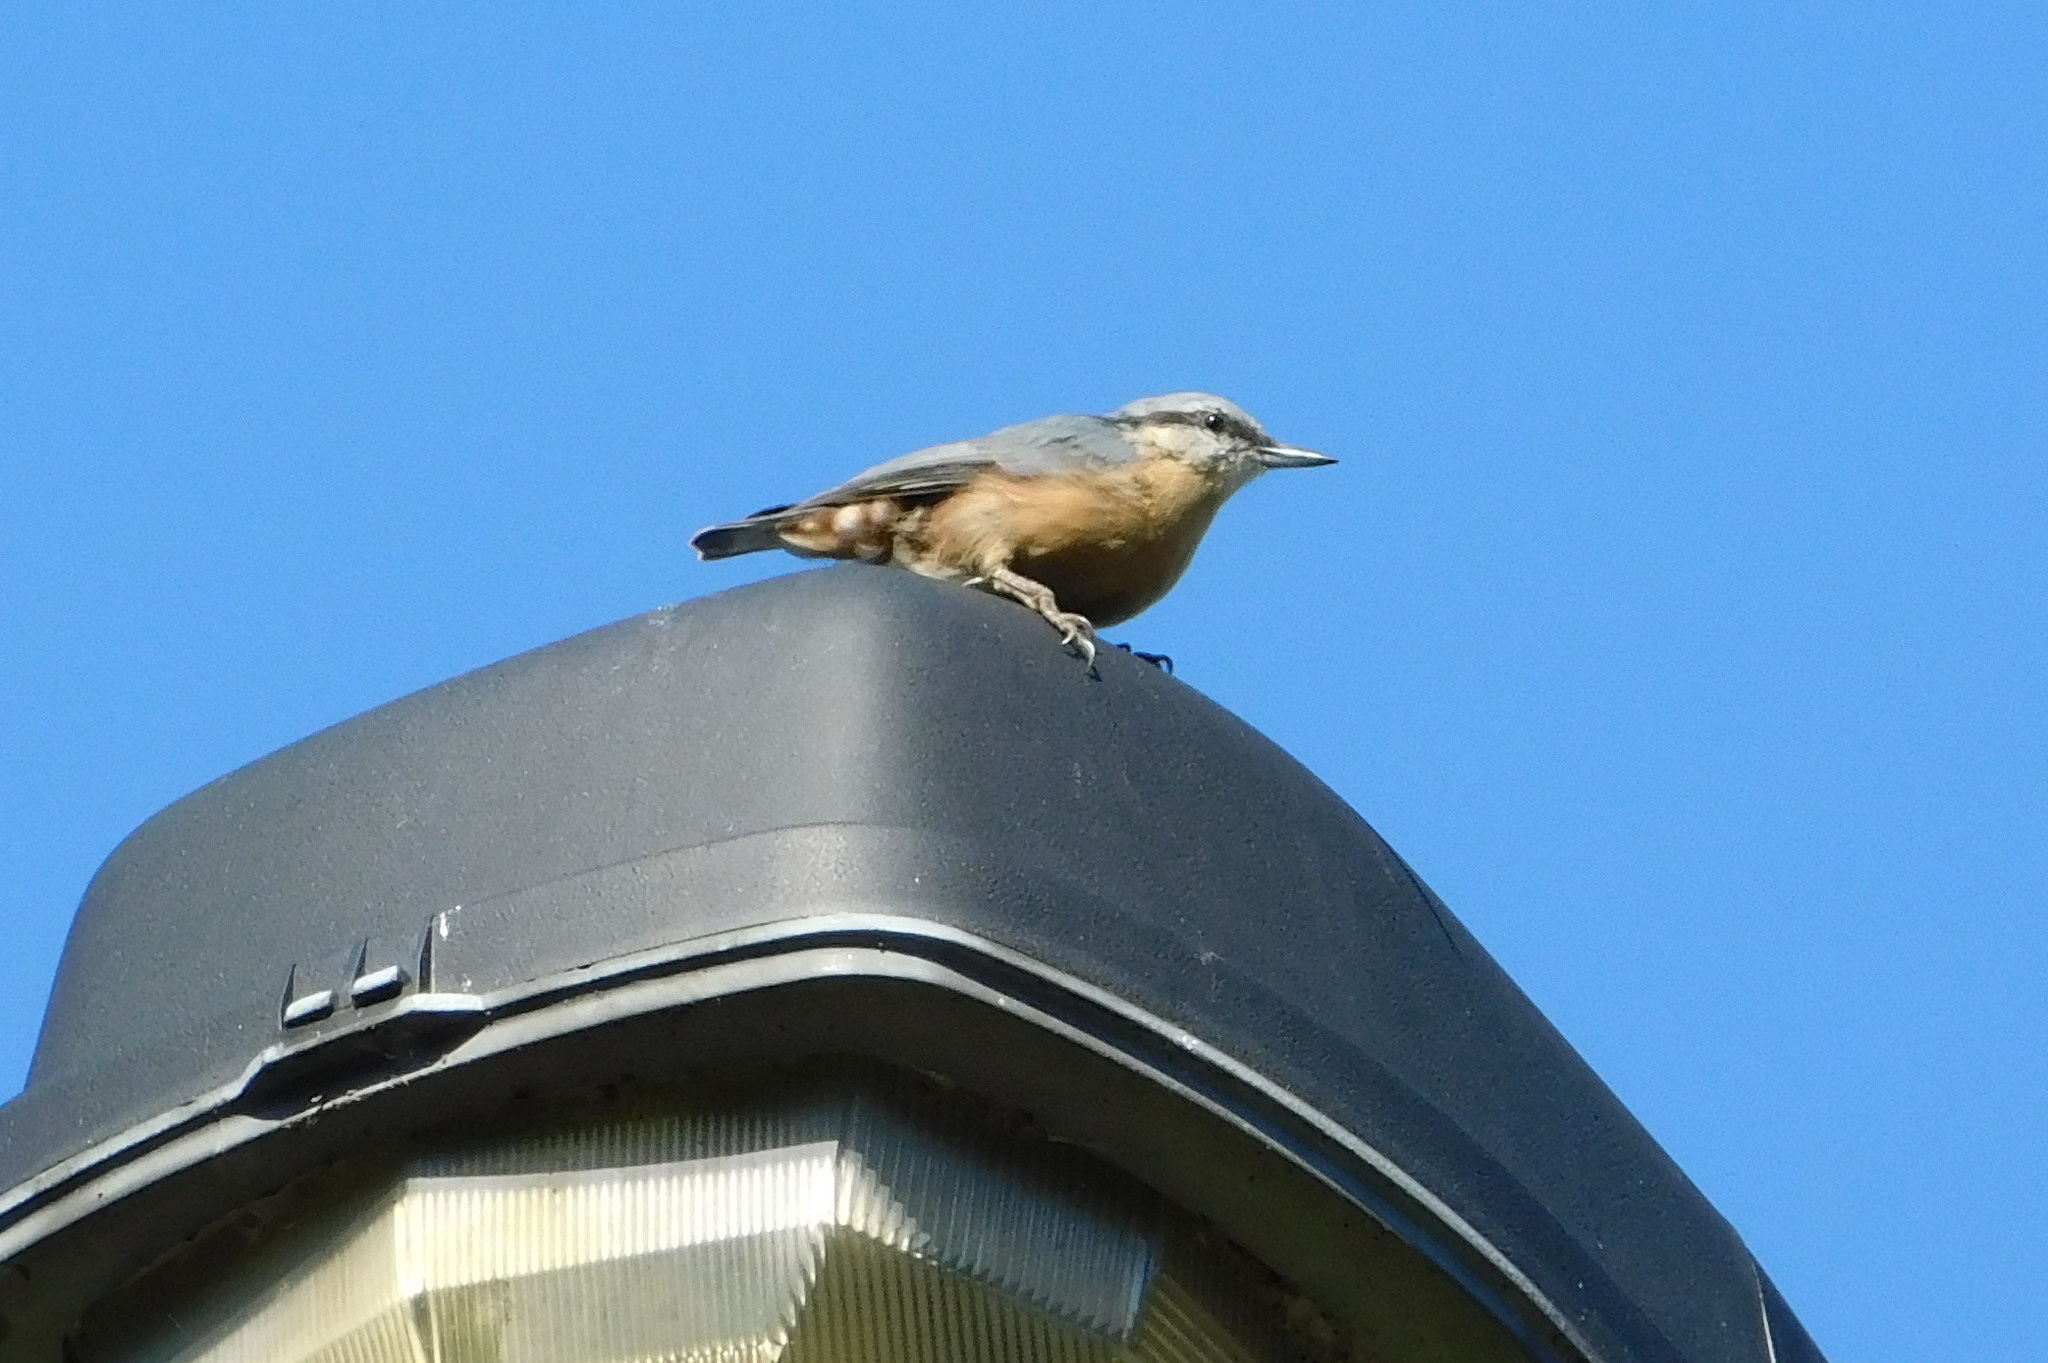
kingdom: Animalia
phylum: Chordata
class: Aves
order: Passeriformes
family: Sittidae
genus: Sitta
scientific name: Sitta europaea
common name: Eurasian nuthatch
